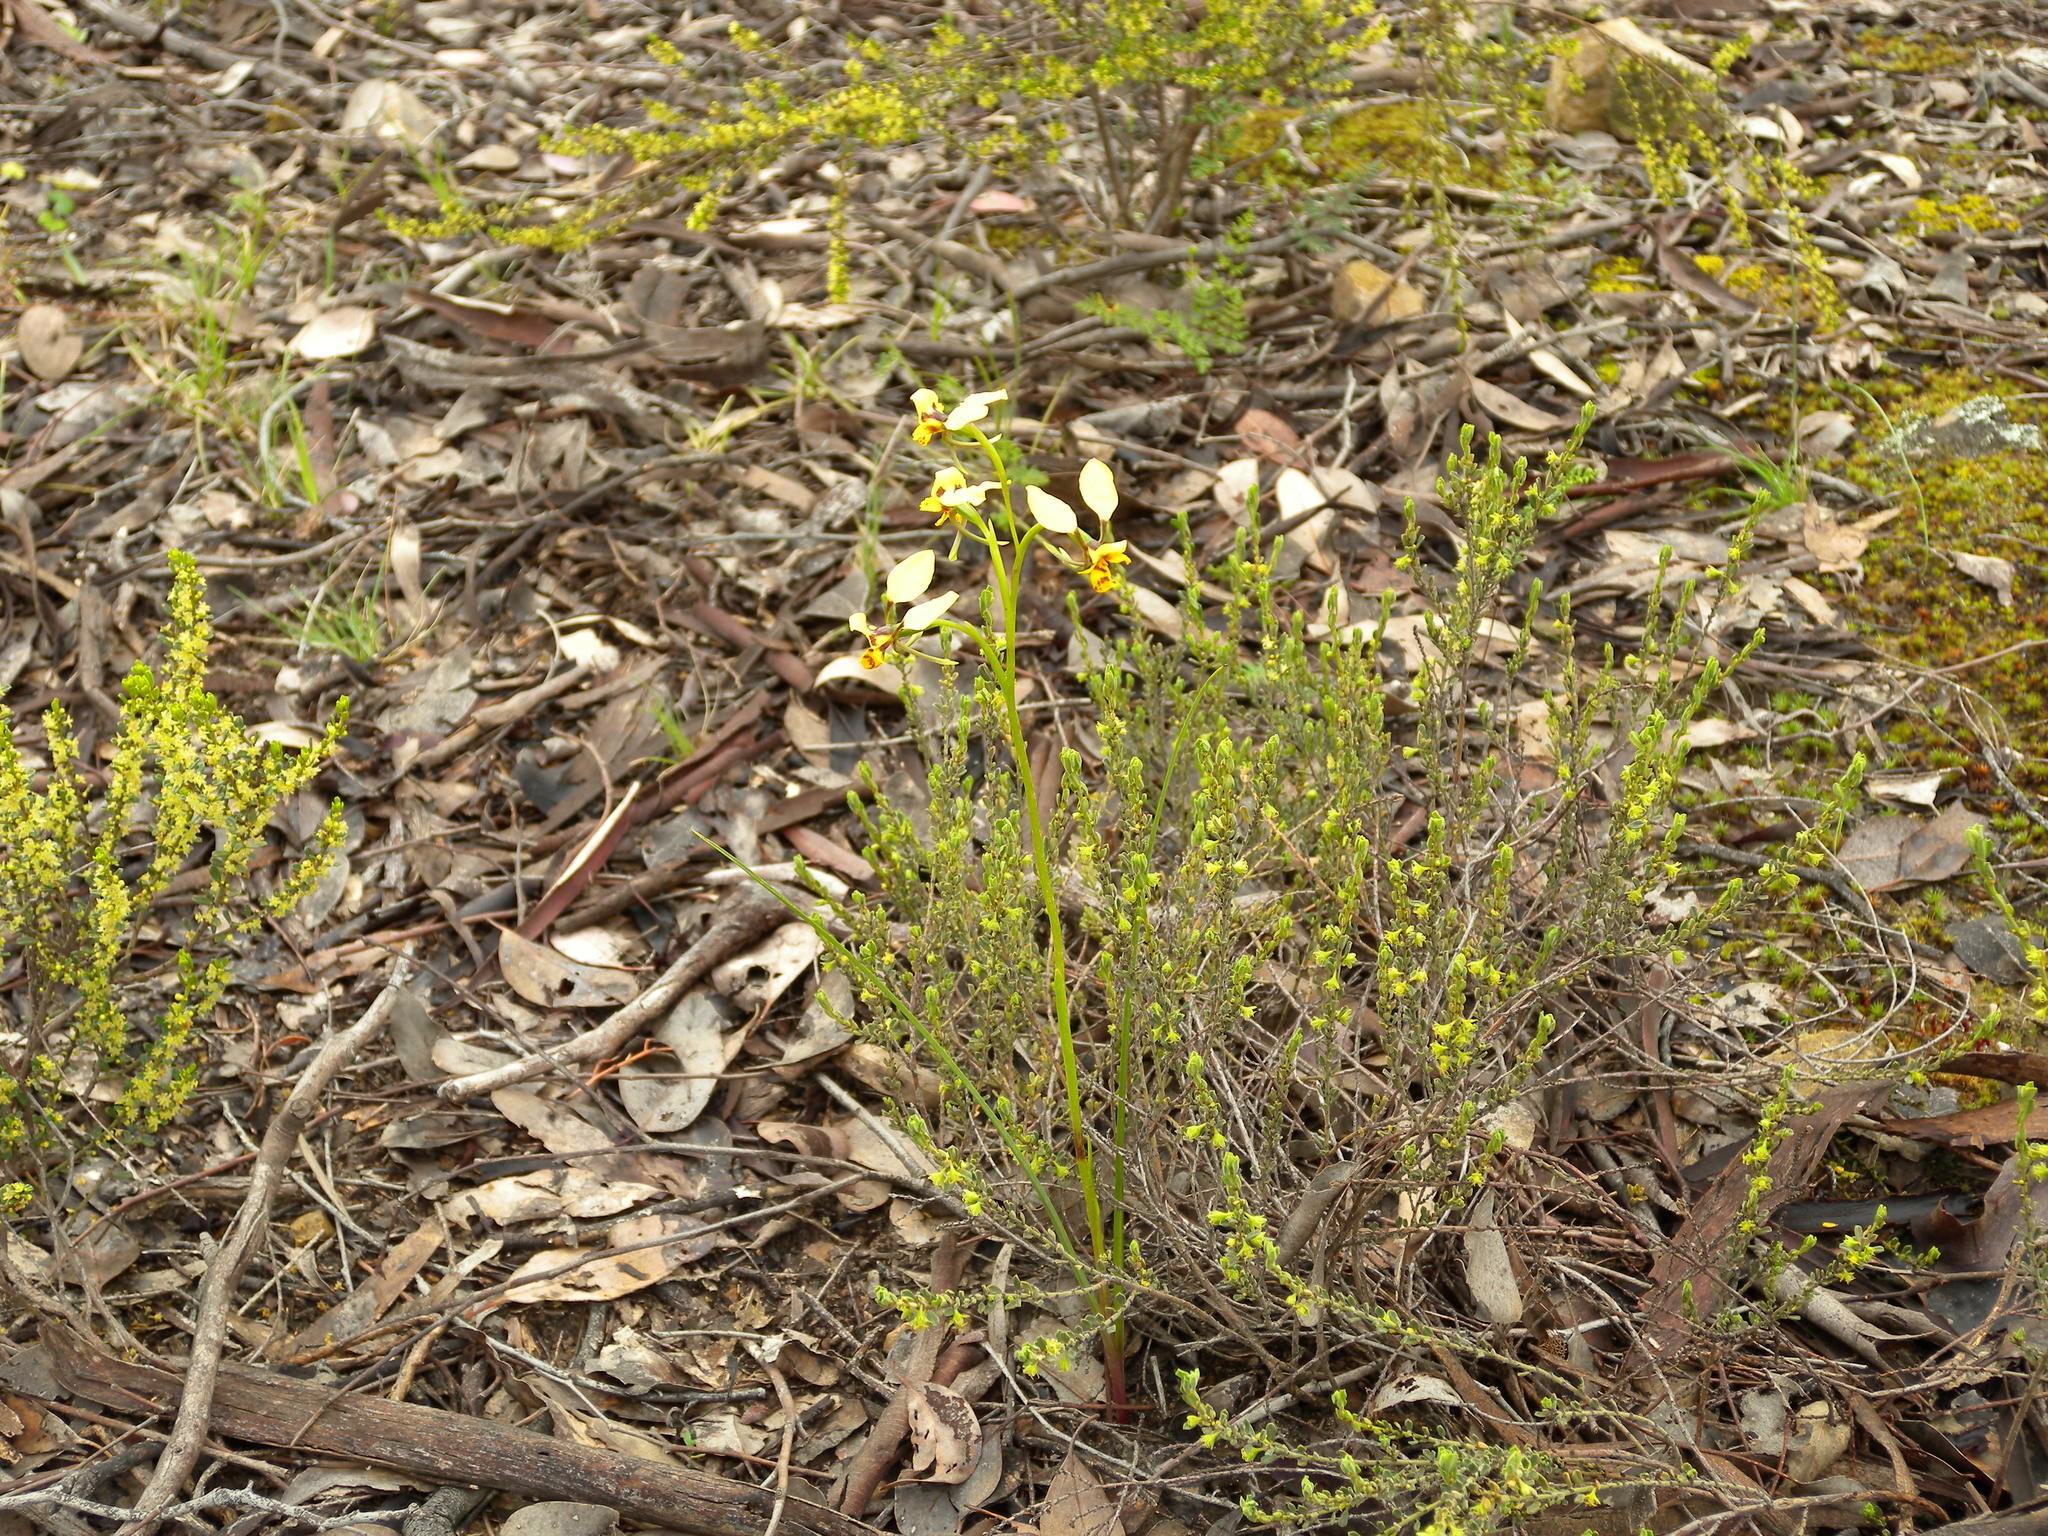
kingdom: Plantae
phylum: Tracheophyta
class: Liliopsida
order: Asparagales
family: Orchidaceae
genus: Diuris
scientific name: Diuris nigromontana
